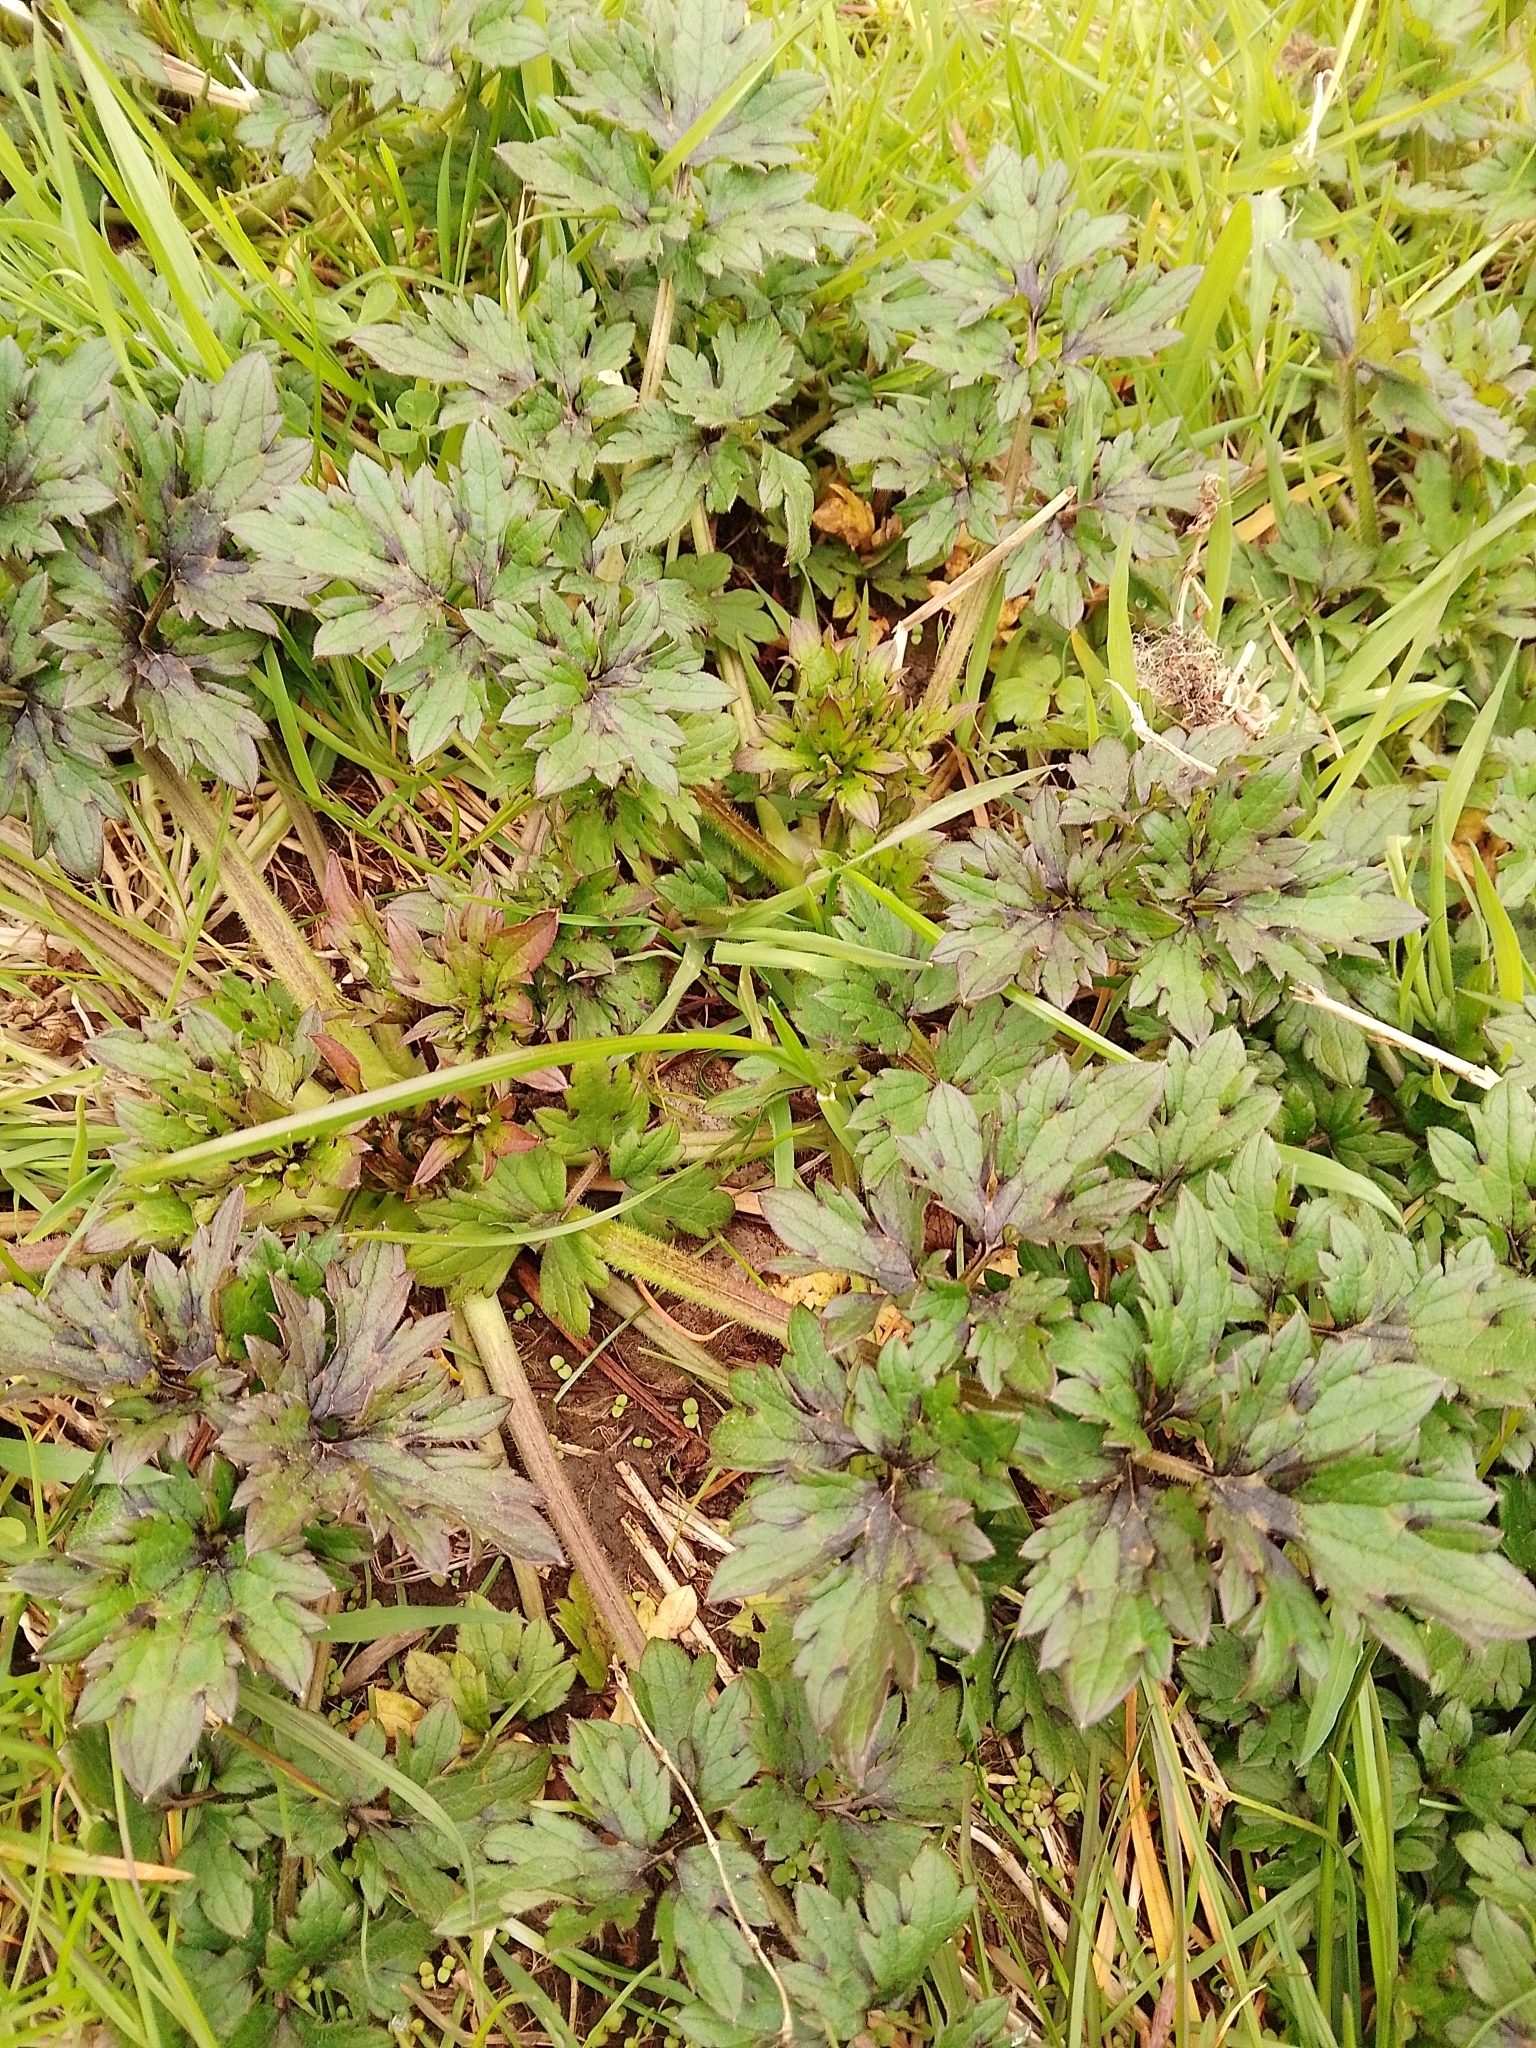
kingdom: Plantae
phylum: Tracheophyta
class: Magnoliopsida
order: Ranunculales
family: Ranunculaceae
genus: Ranunculus
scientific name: Ranunculus repens
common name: Creeping buttercup
